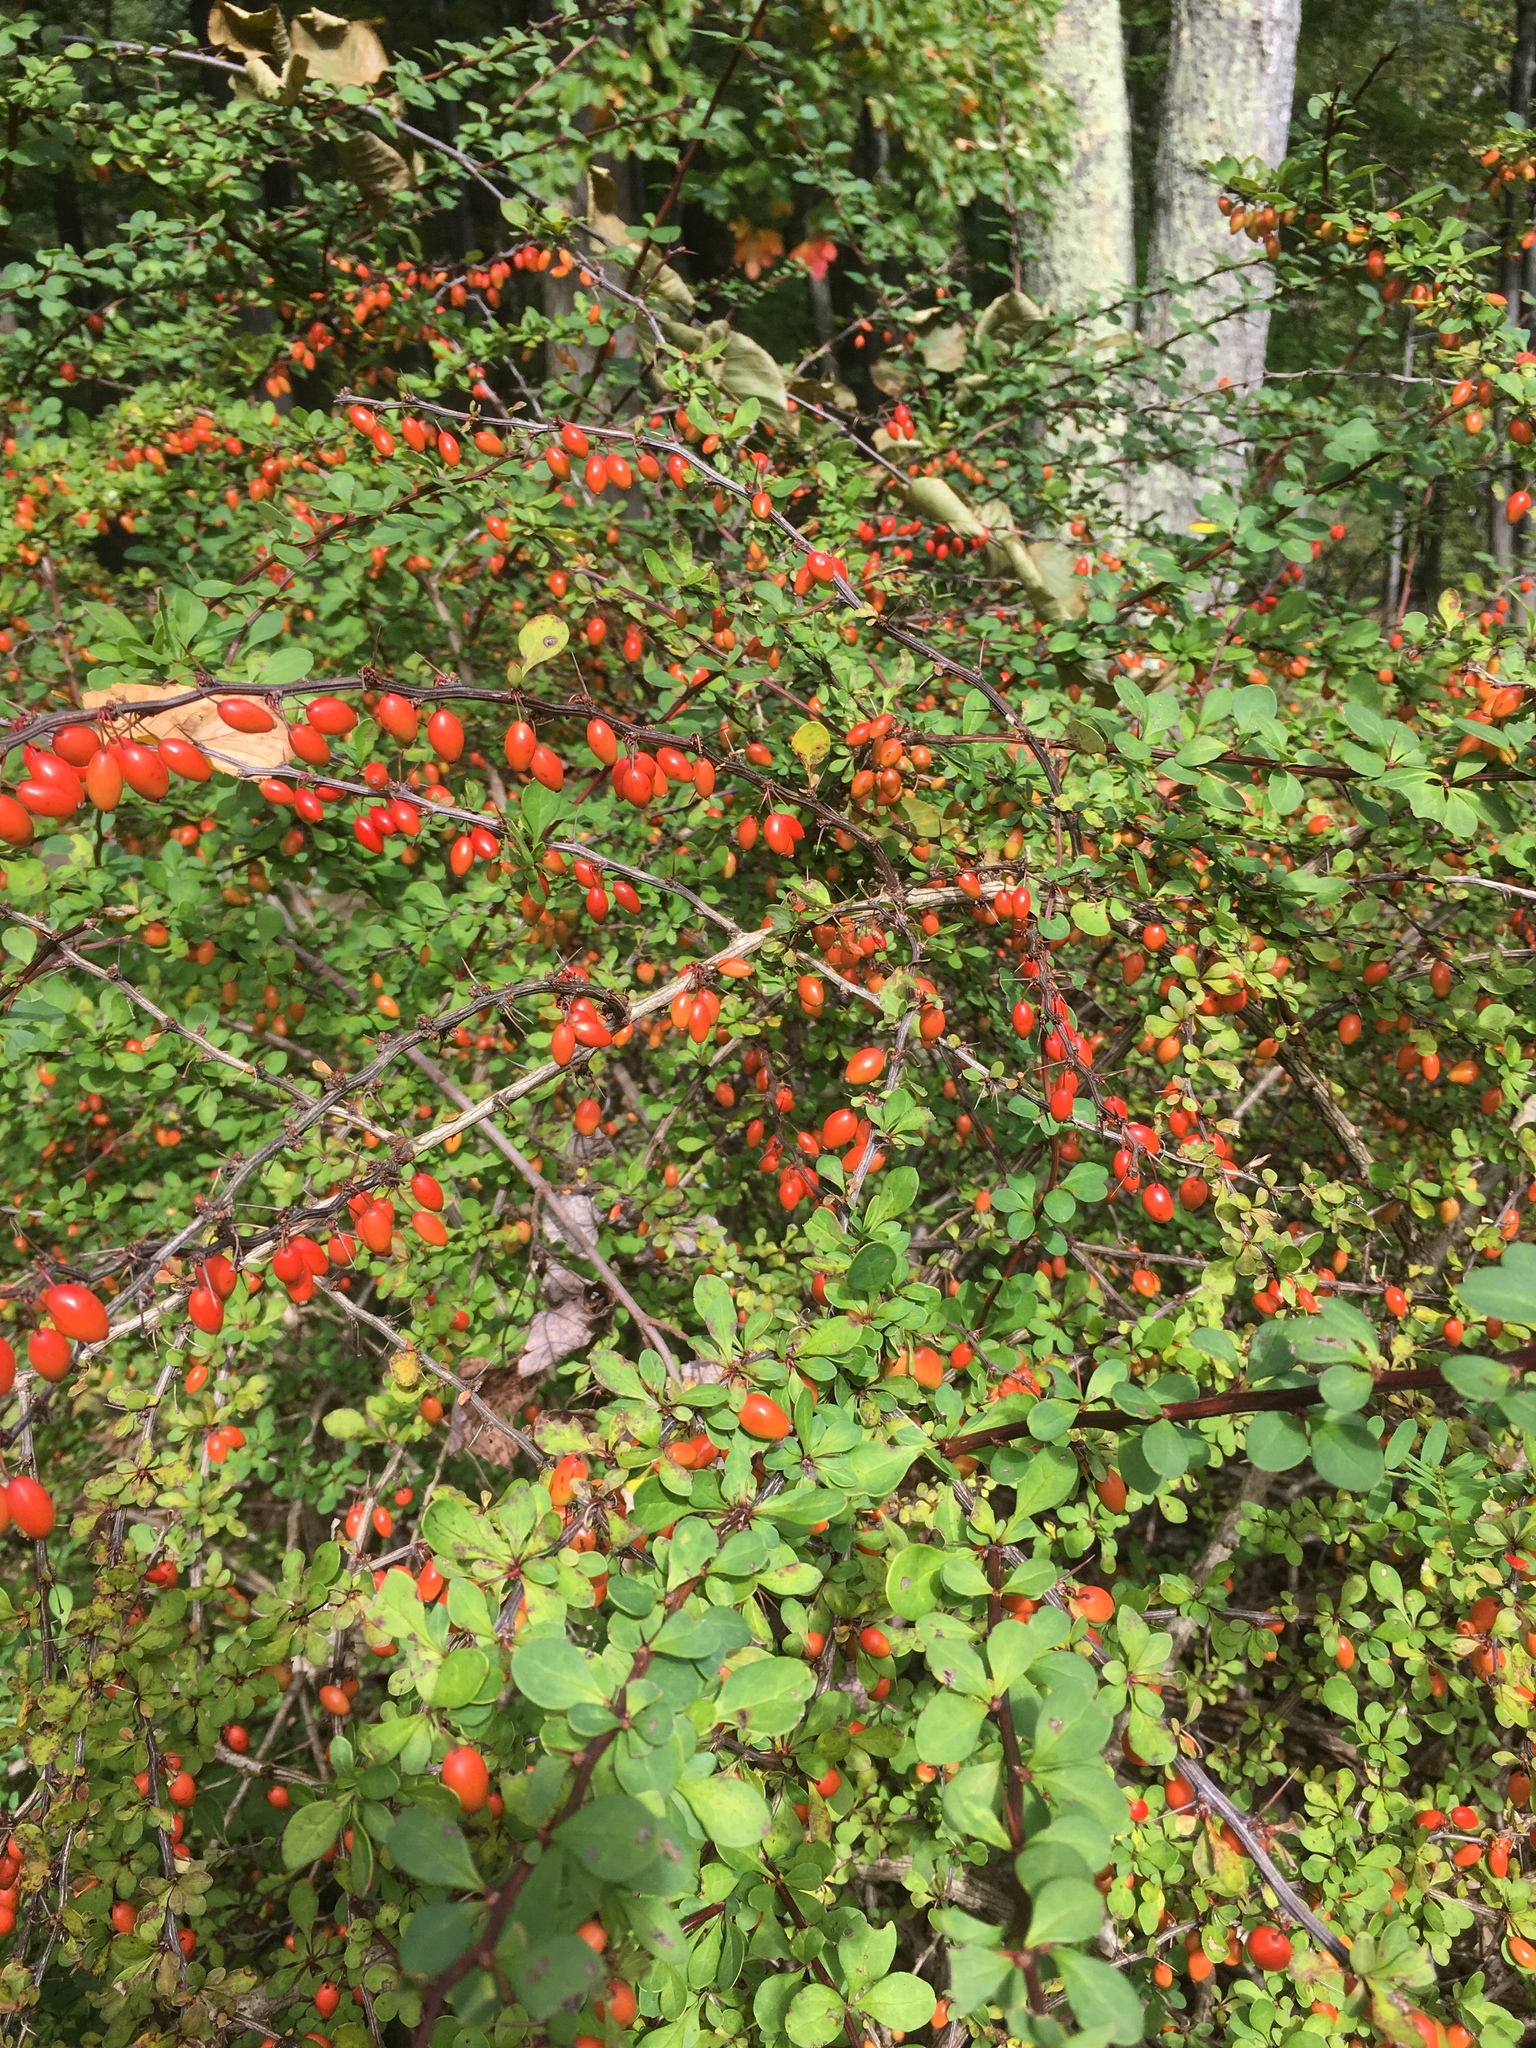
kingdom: Plantae
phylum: Tracheophyta
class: Magnoliopsida
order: Ranunculales
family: Berberidaceae
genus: Berberis
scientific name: Berberis thunbergii
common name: Japanese barberry
